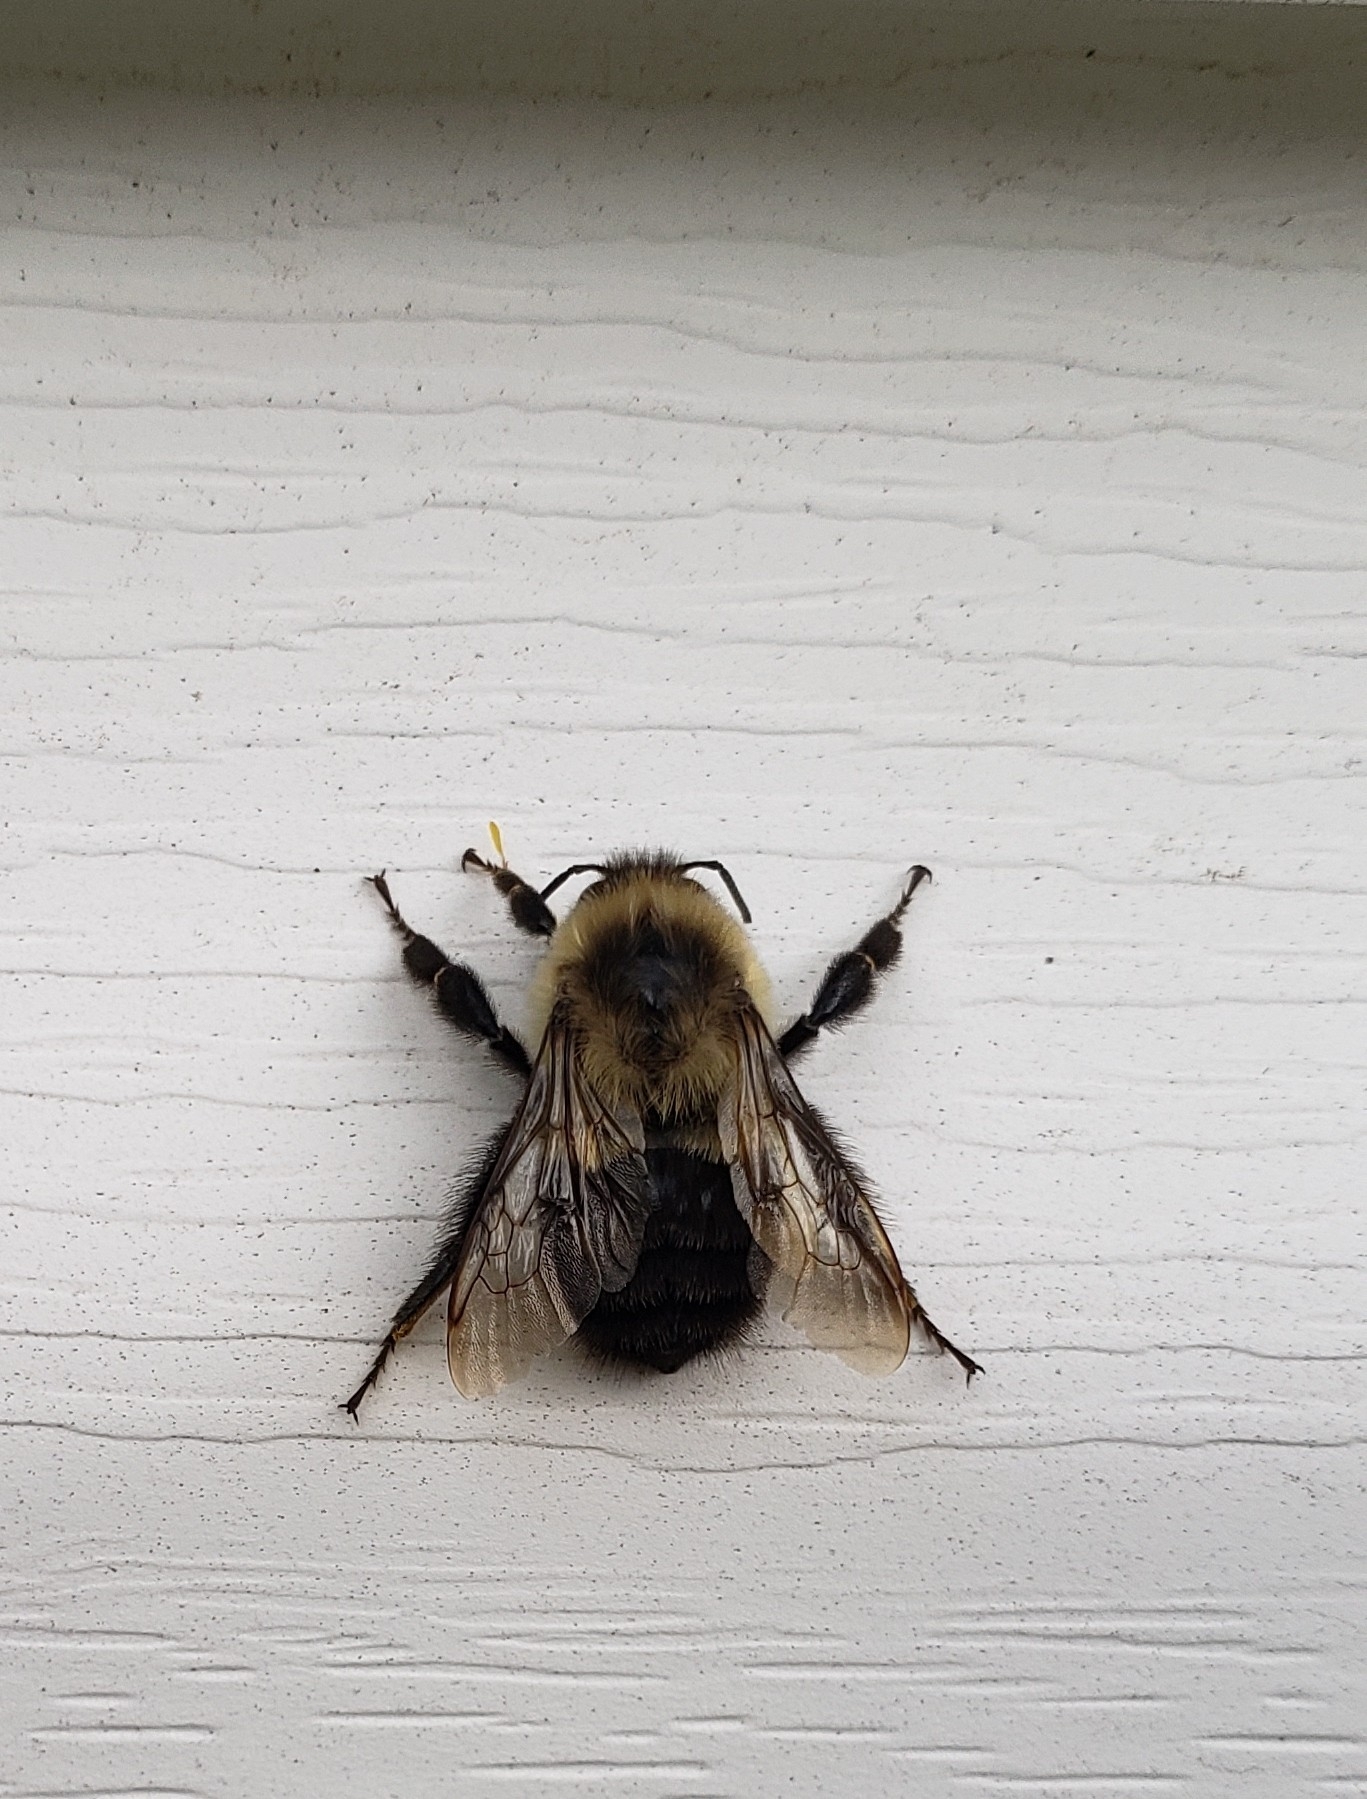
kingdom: Animalia
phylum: Arthropoda
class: Insecta
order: Hymenoptera
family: Apidae
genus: Bombus
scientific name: Bombus impatiens
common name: Common eastern bumble bee
